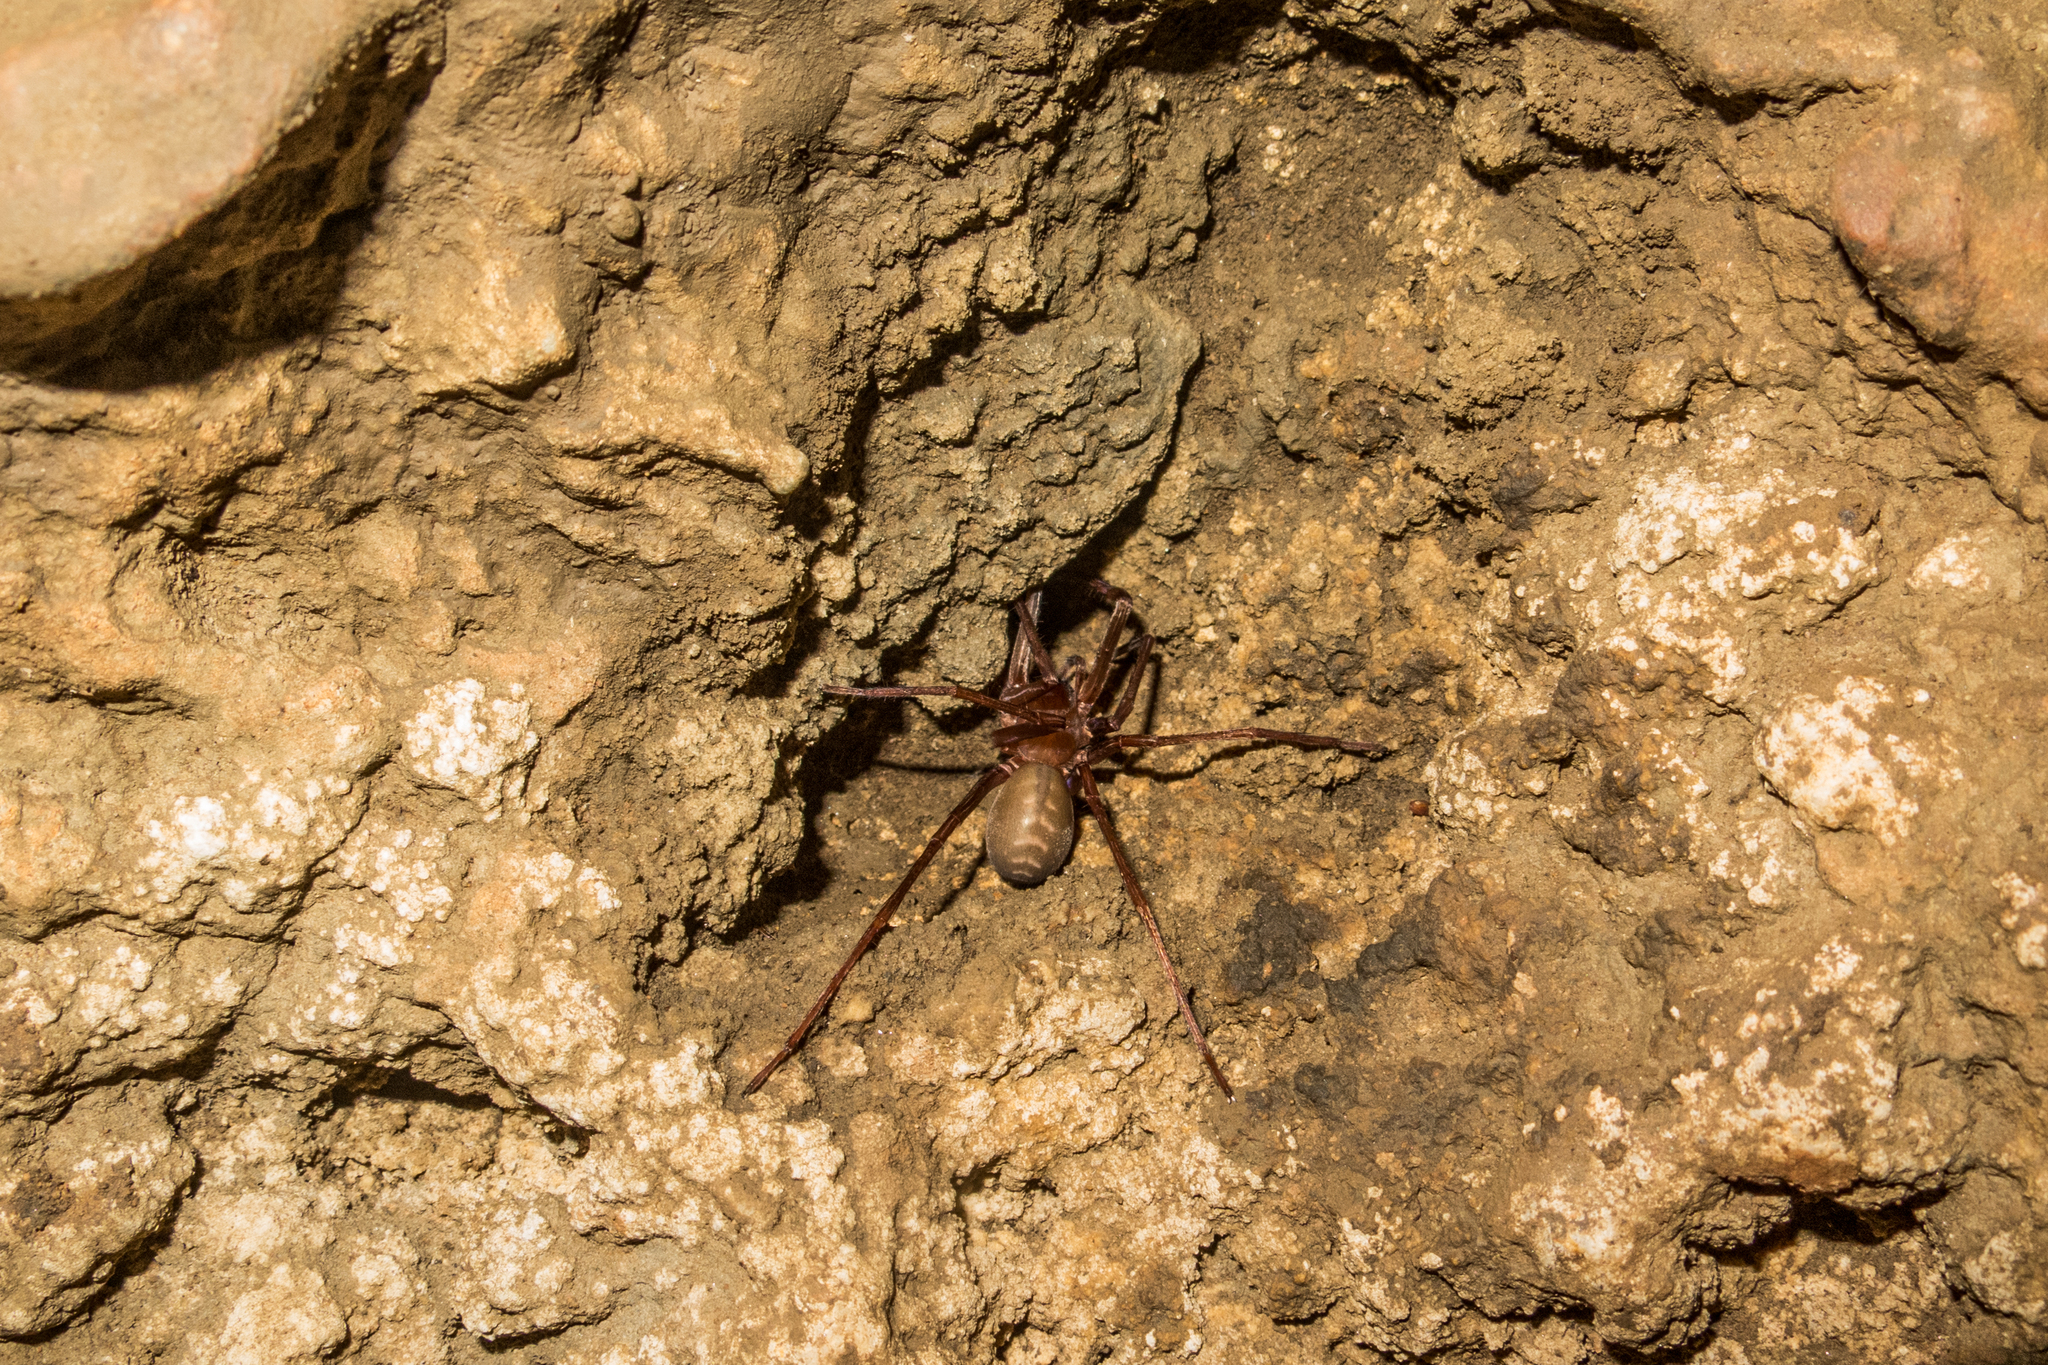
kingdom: Animalia
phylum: Arthropoda
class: Arachnida
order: Araneae
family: Ctenidae
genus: Ctenus
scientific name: Ctenus fasciatus
